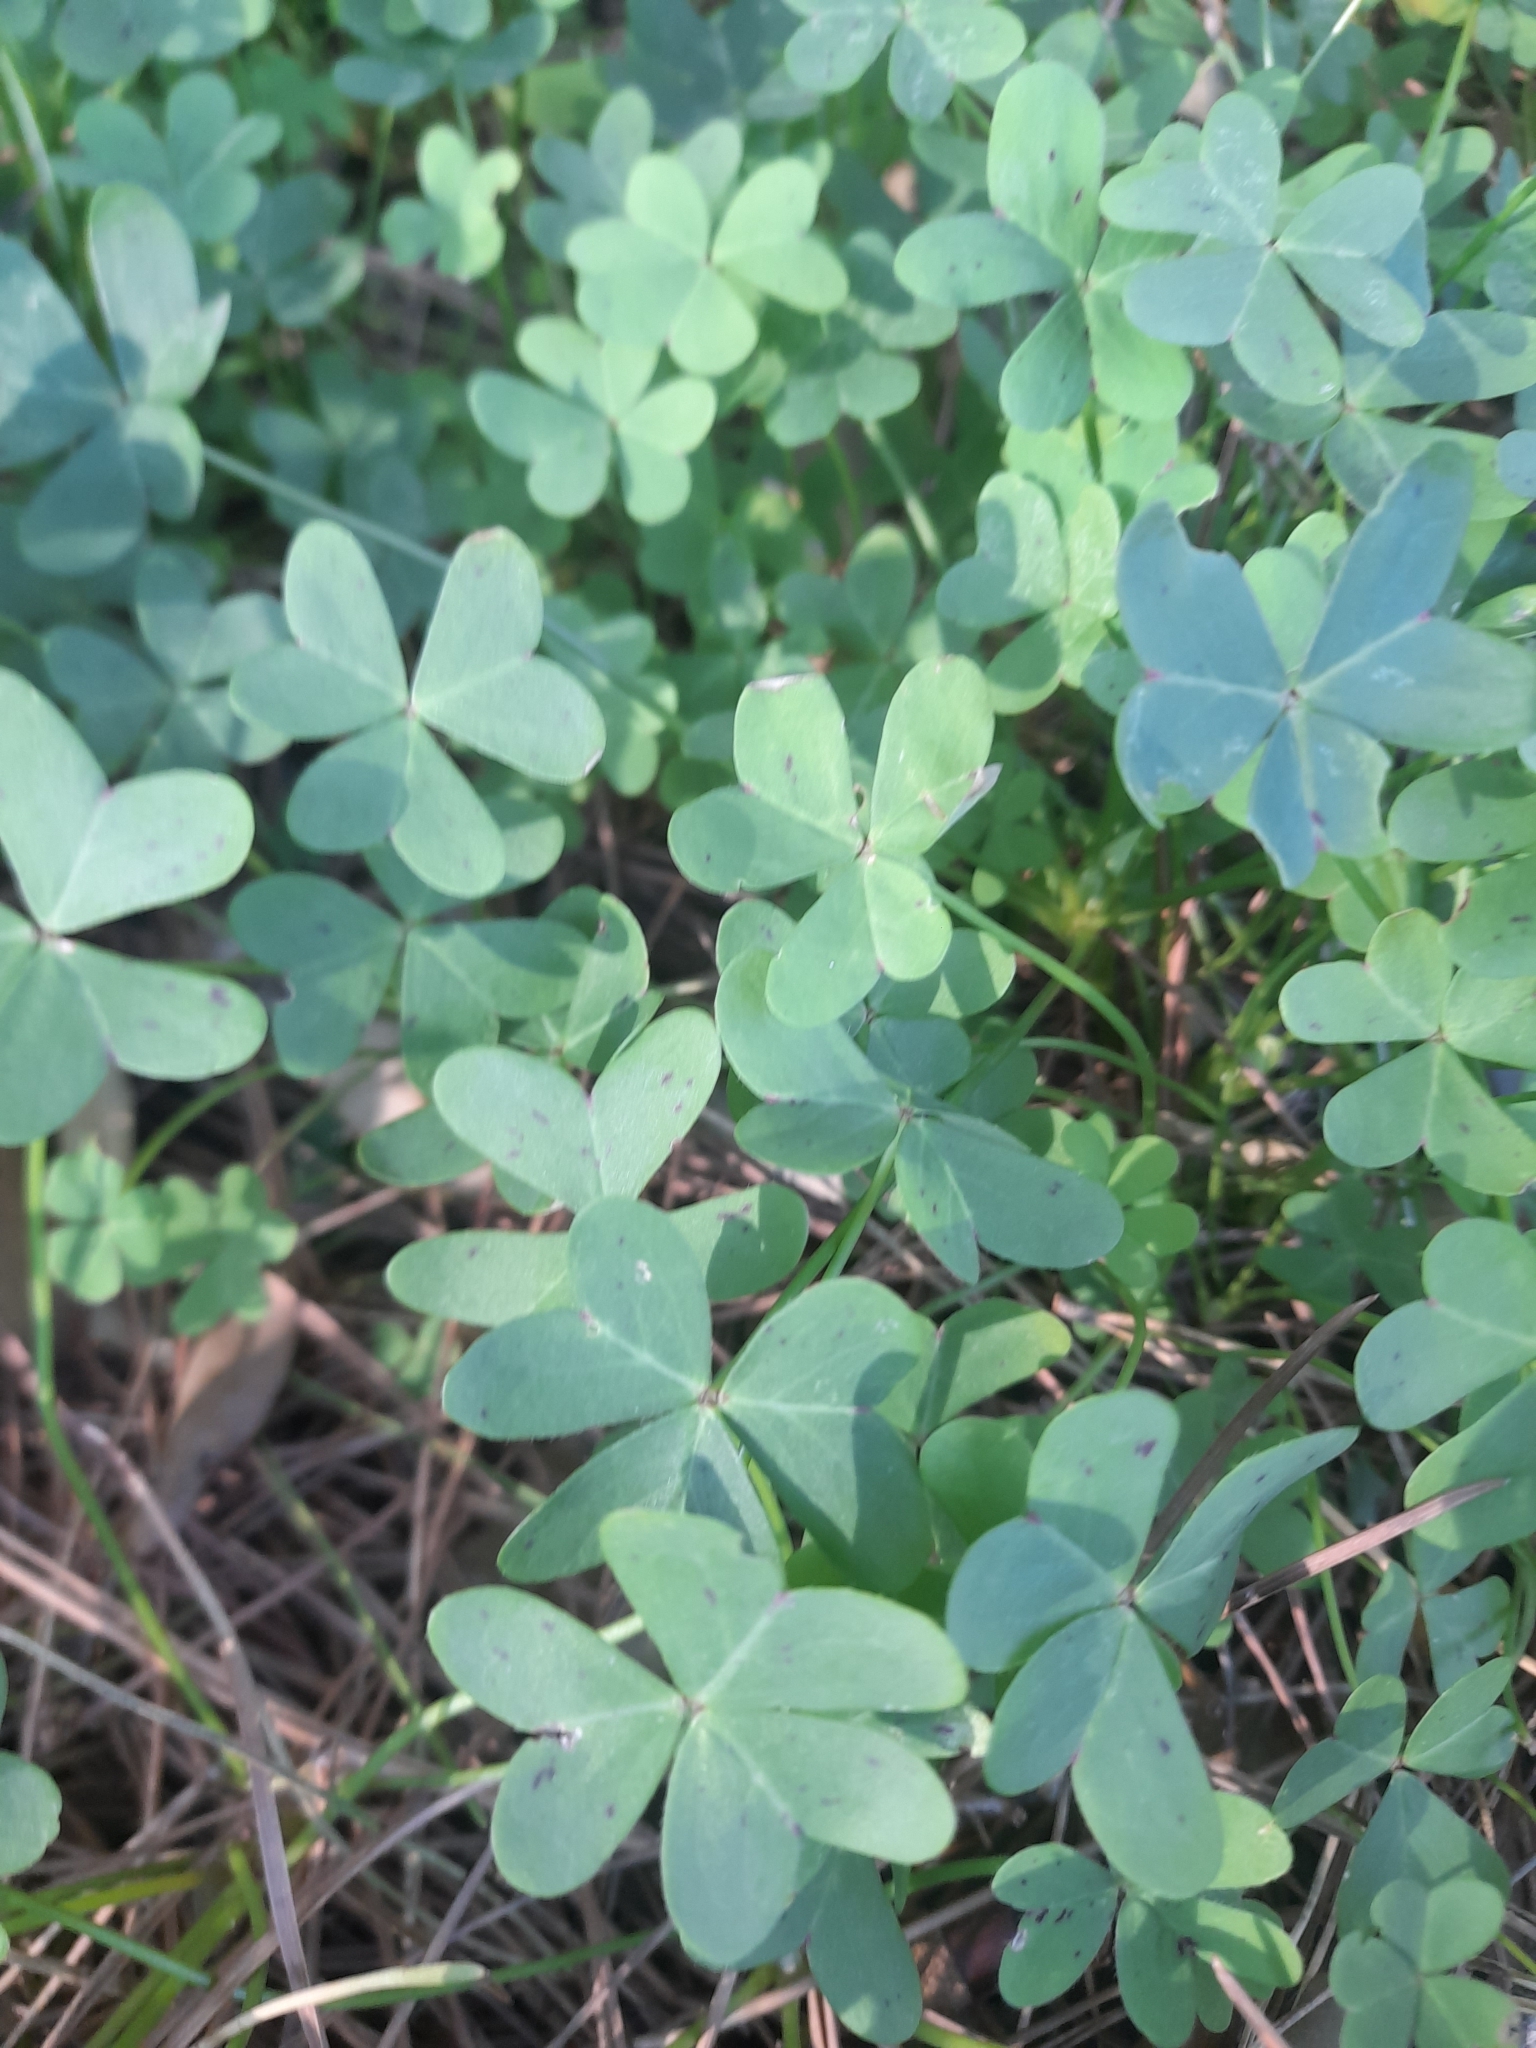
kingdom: Plantae
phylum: Tracheophyta
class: Magnoliopsida
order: Oxalidales
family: Oxalidaceae
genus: Oxalis
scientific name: Oxalis pes-caprae
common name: Bermuda-buttercup
